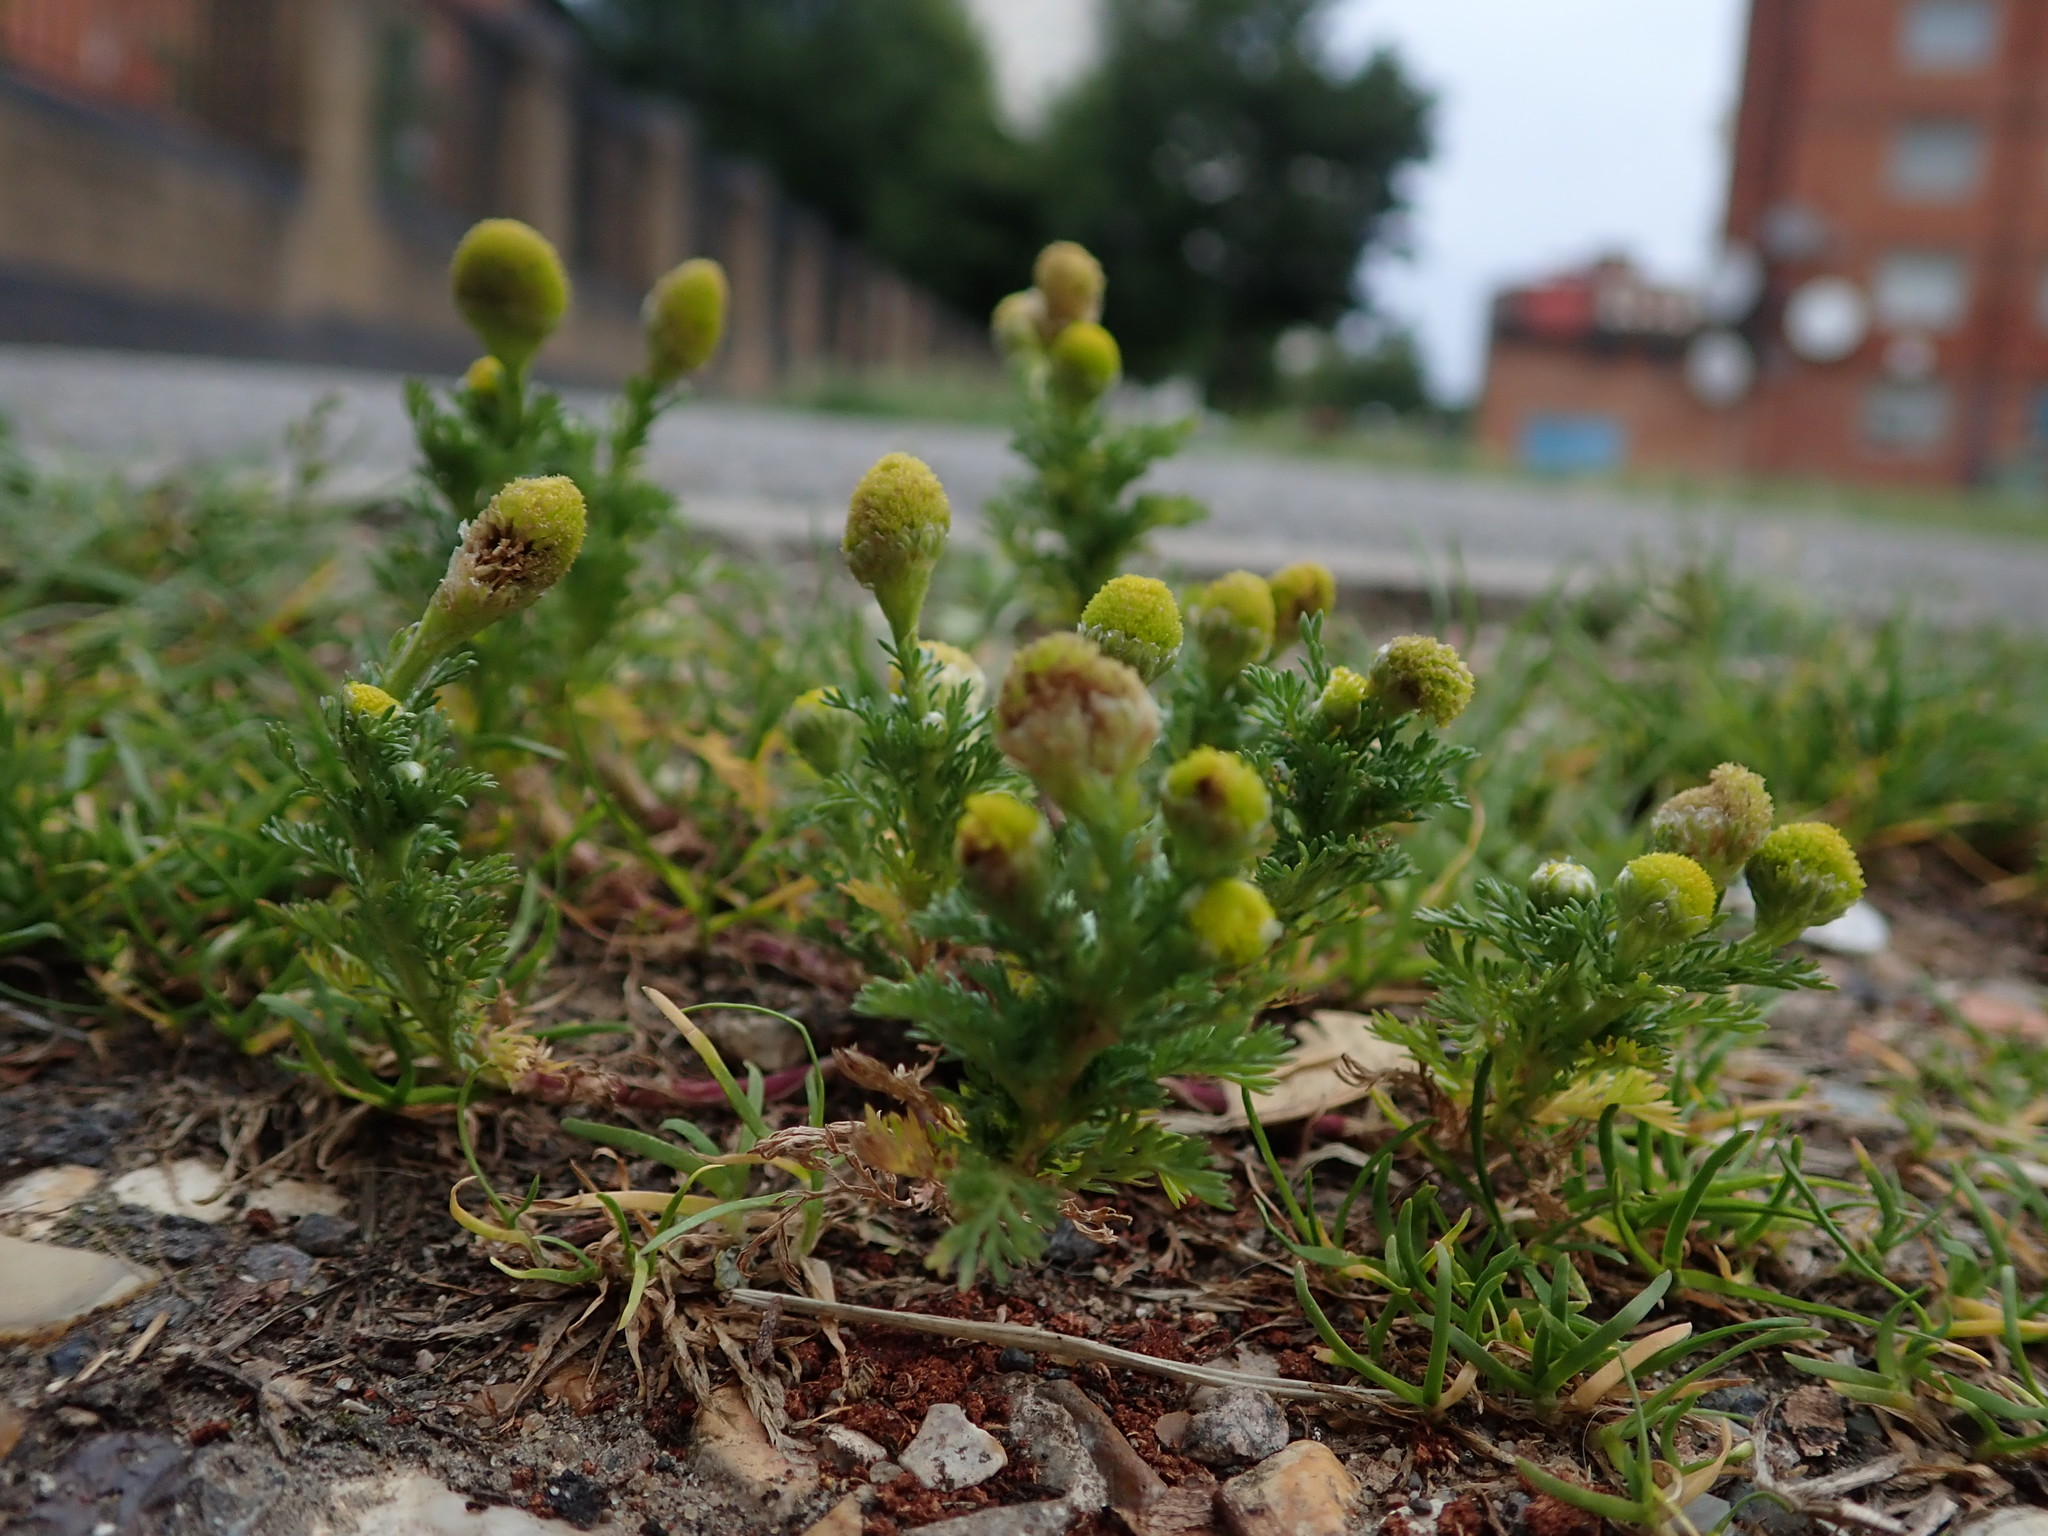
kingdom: Plantae
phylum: Tracheophyta
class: Magnoliopsida
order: Asterales
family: Asteraceae
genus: Matricaria
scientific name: Matricaria discoidea
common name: Disc mayweed
